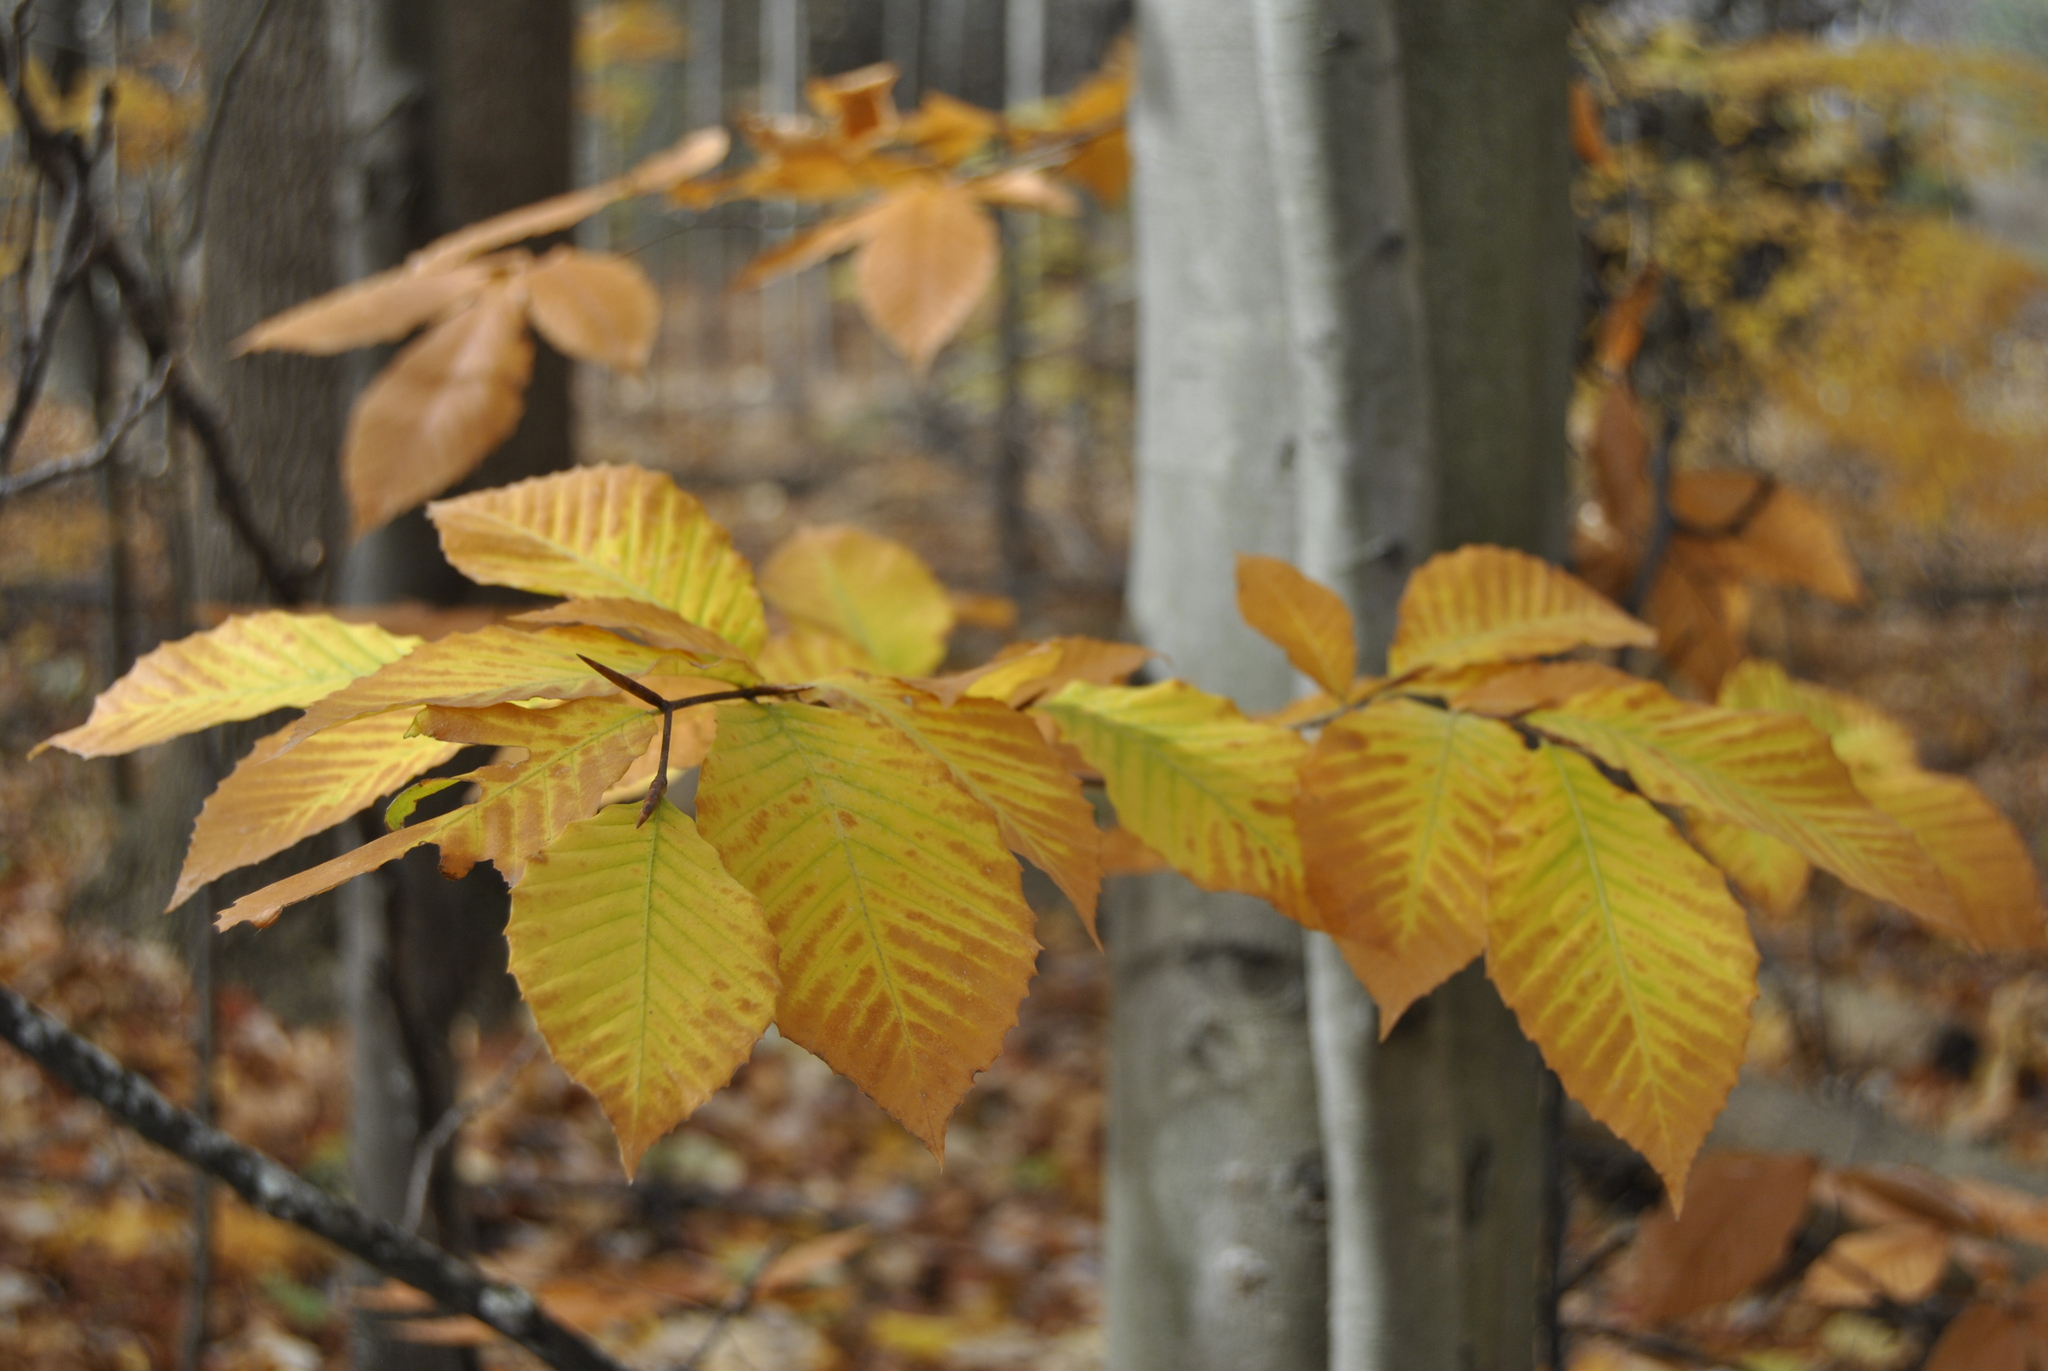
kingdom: Plantae
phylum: Tracheophyta
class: Magnoliopsida
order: Fagales
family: Fagaceae
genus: Fagus
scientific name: Fagus grandifolia
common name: American beech
